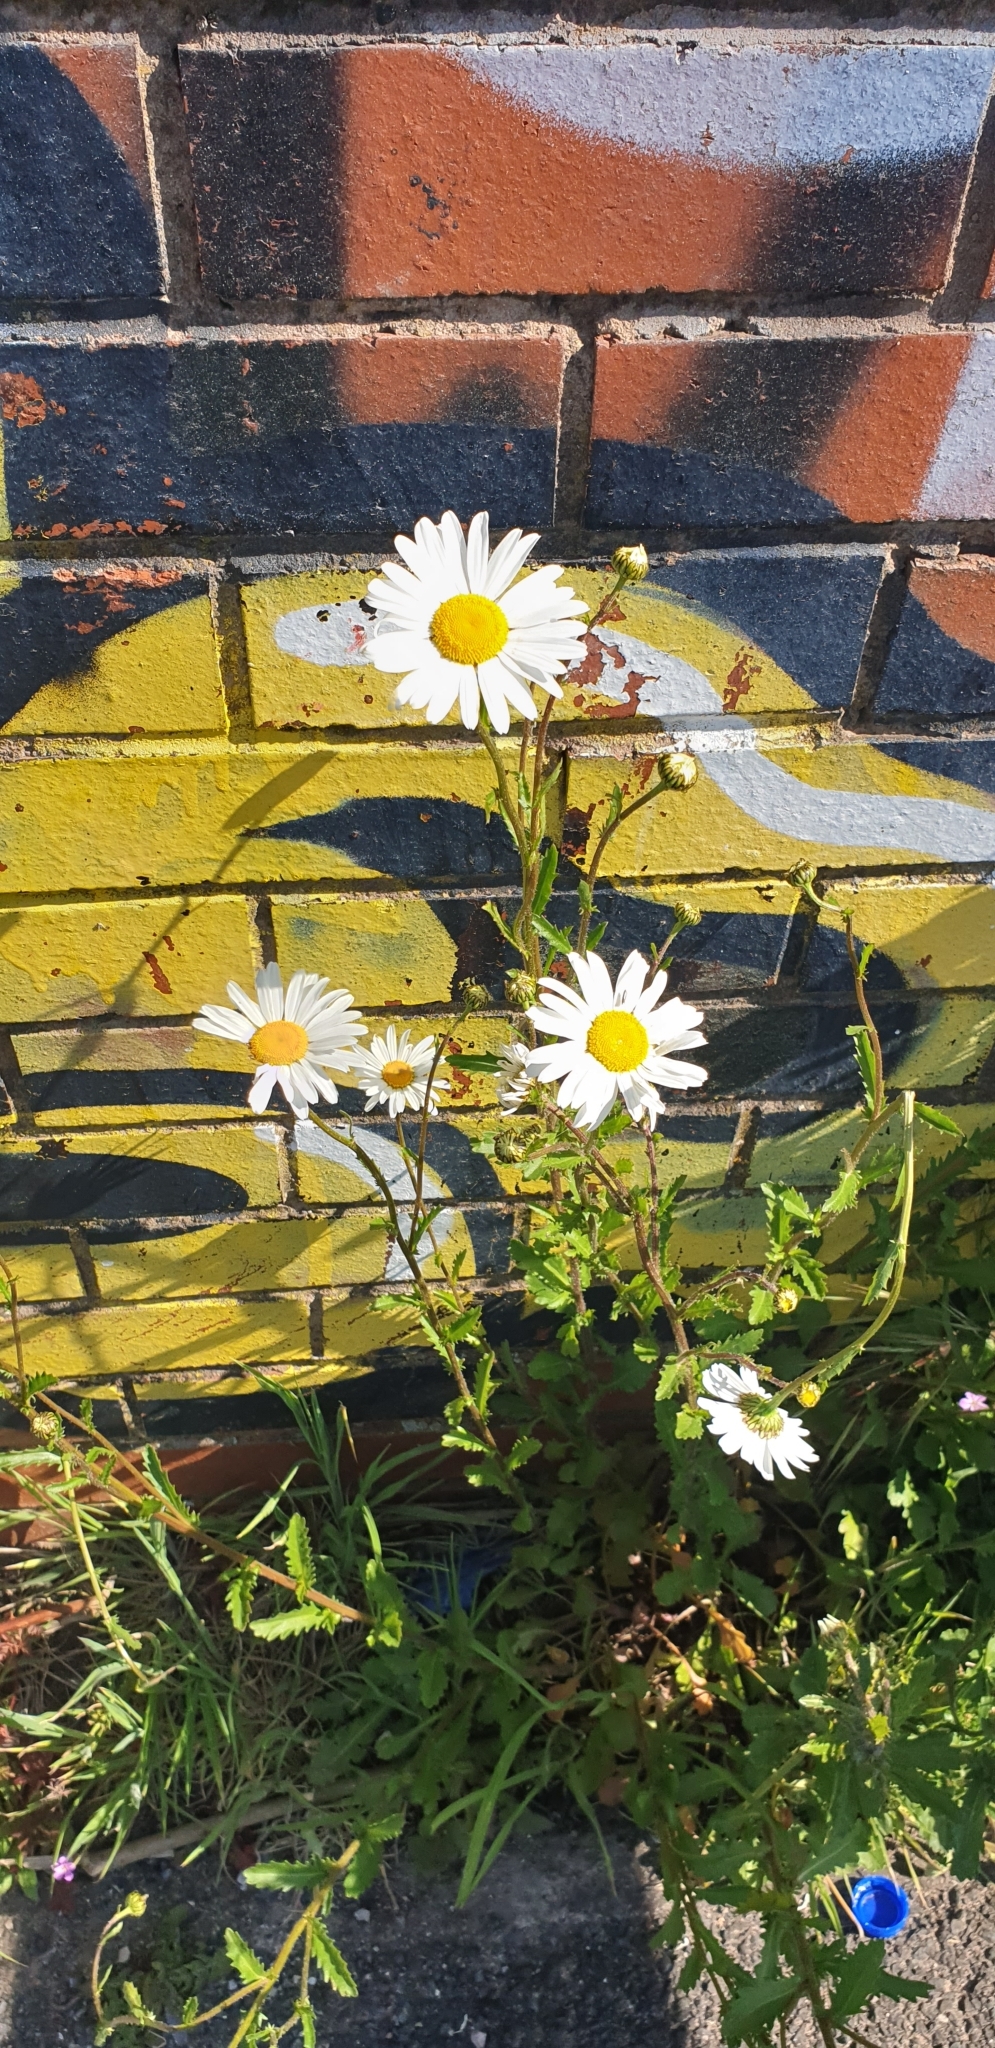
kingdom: Plantae
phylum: Tracheophyta
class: Magnoliopsida
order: Asterales
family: Asteraceae
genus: Leucanthemum
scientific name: Leucanthemum vulgare
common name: Oxeye daisy
